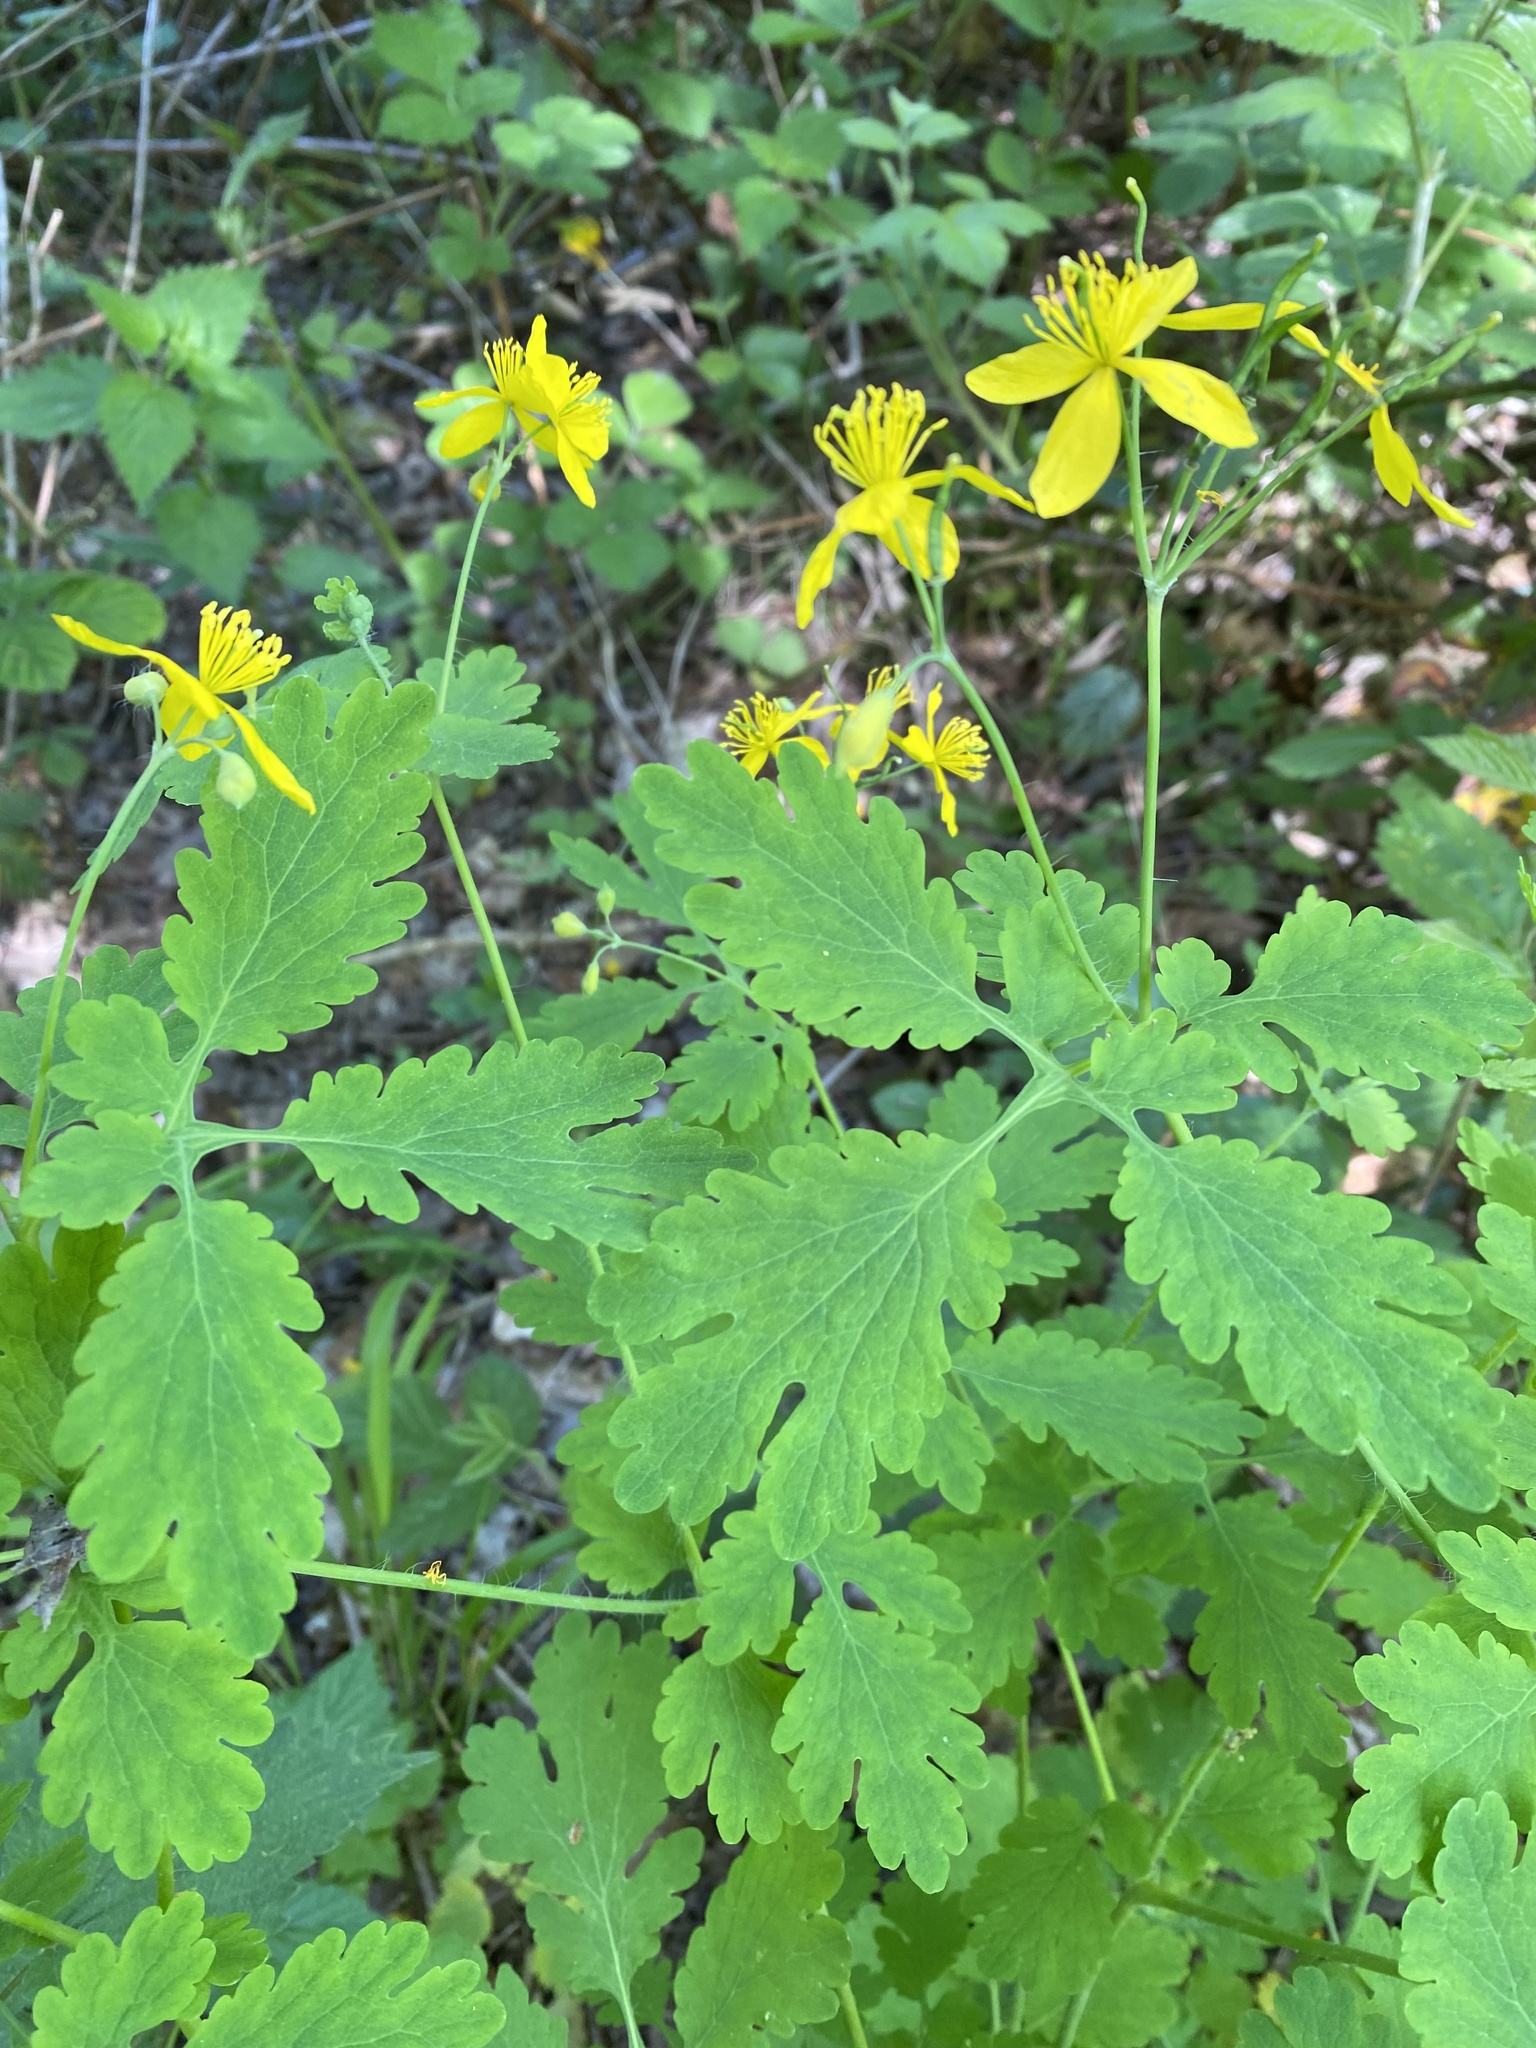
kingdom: Plantae
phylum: Tracheophyta
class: Magnoliopsida
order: Ranunculales
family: Papaveraceae
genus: Chelidonium
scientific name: Chelidonium majus
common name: Greater celandine
